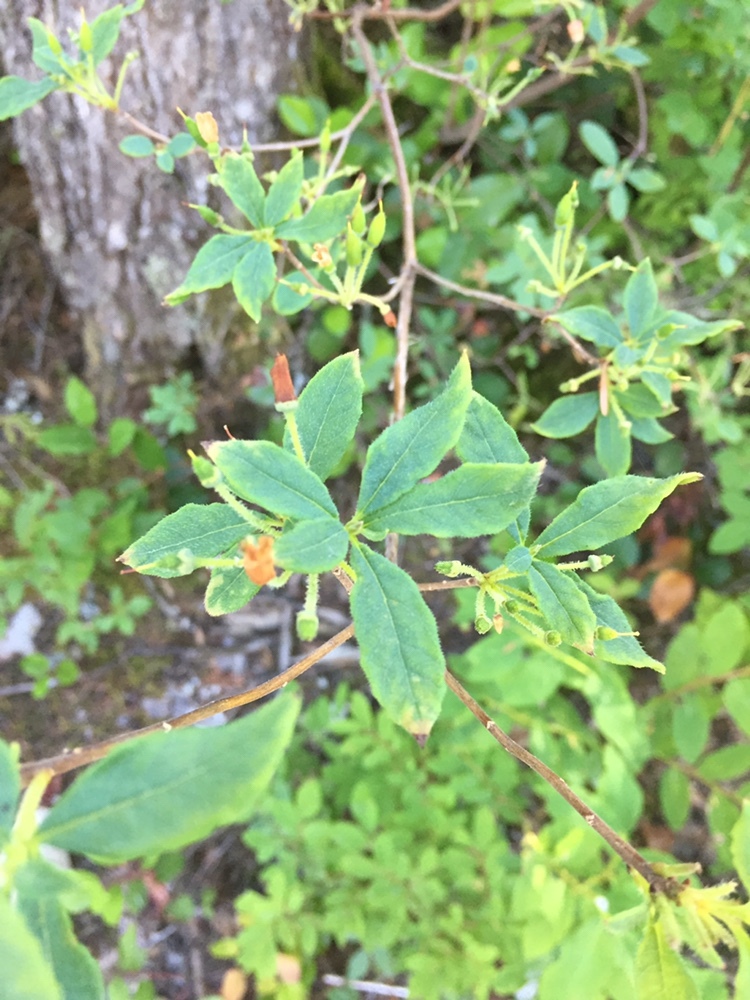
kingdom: Plantae
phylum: Tracheophyta
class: Magnoliopsida
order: Ericales
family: Ericaceae
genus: Rhododendron
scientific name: Rhododendron menziesii
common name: Pacific menziesia
